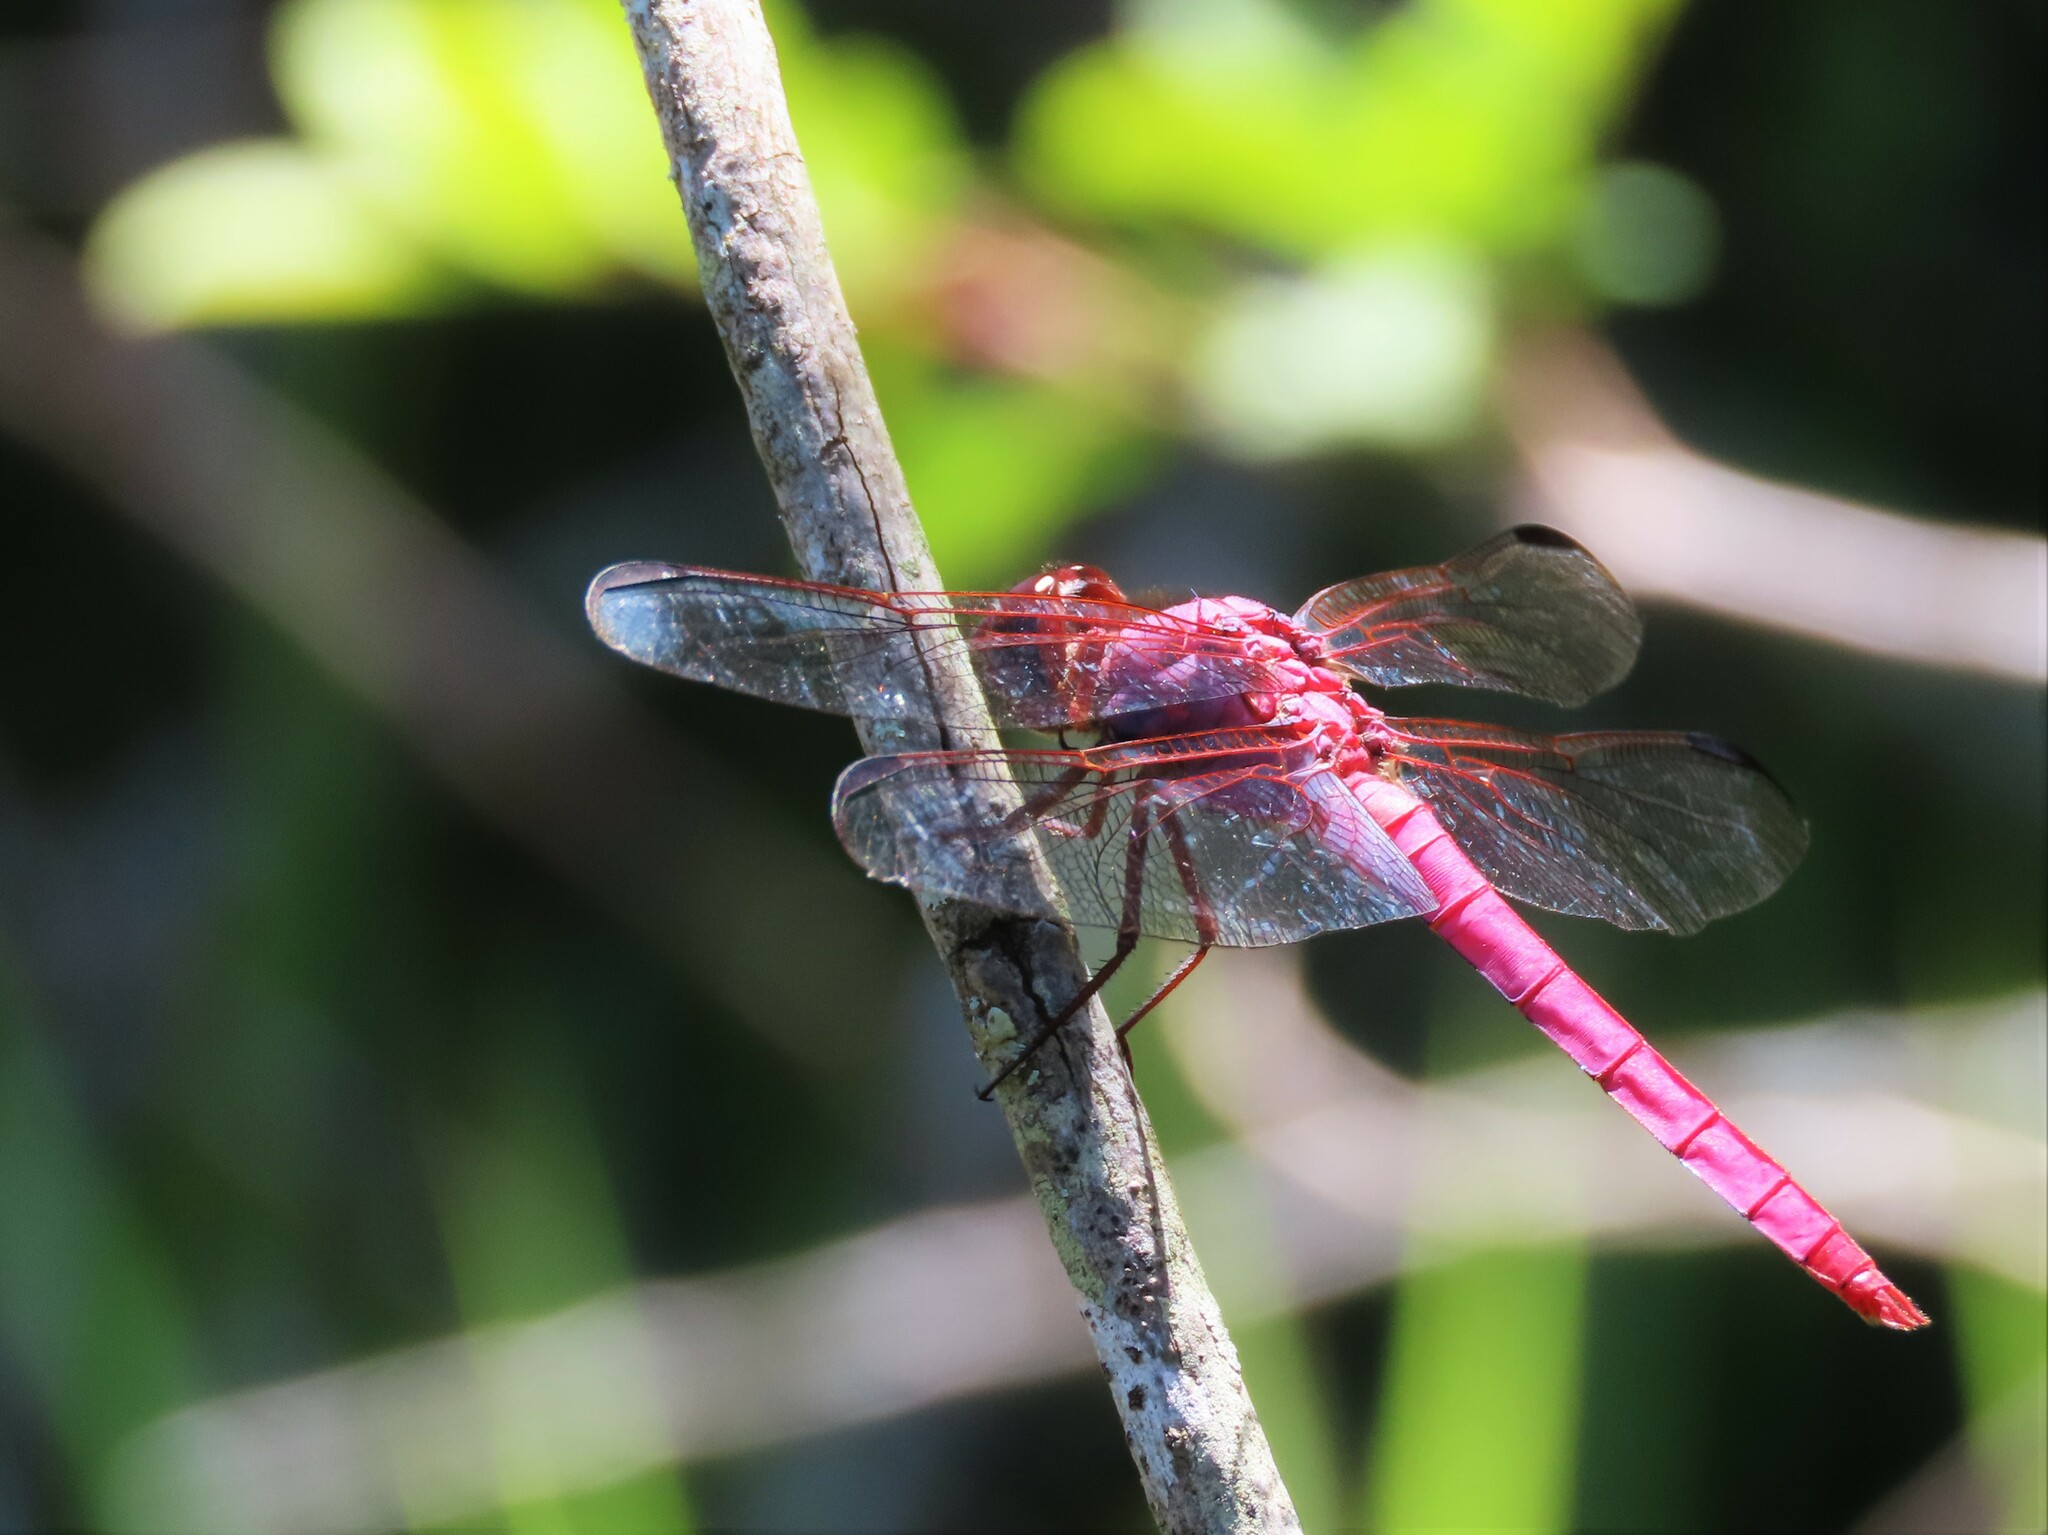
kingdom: Animalia
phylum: Arthropoda
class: Insecta
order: Odonata
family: Libellulidae
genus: Orthemis
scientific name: Orthemis ferruginea
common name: Roseate skimmer
